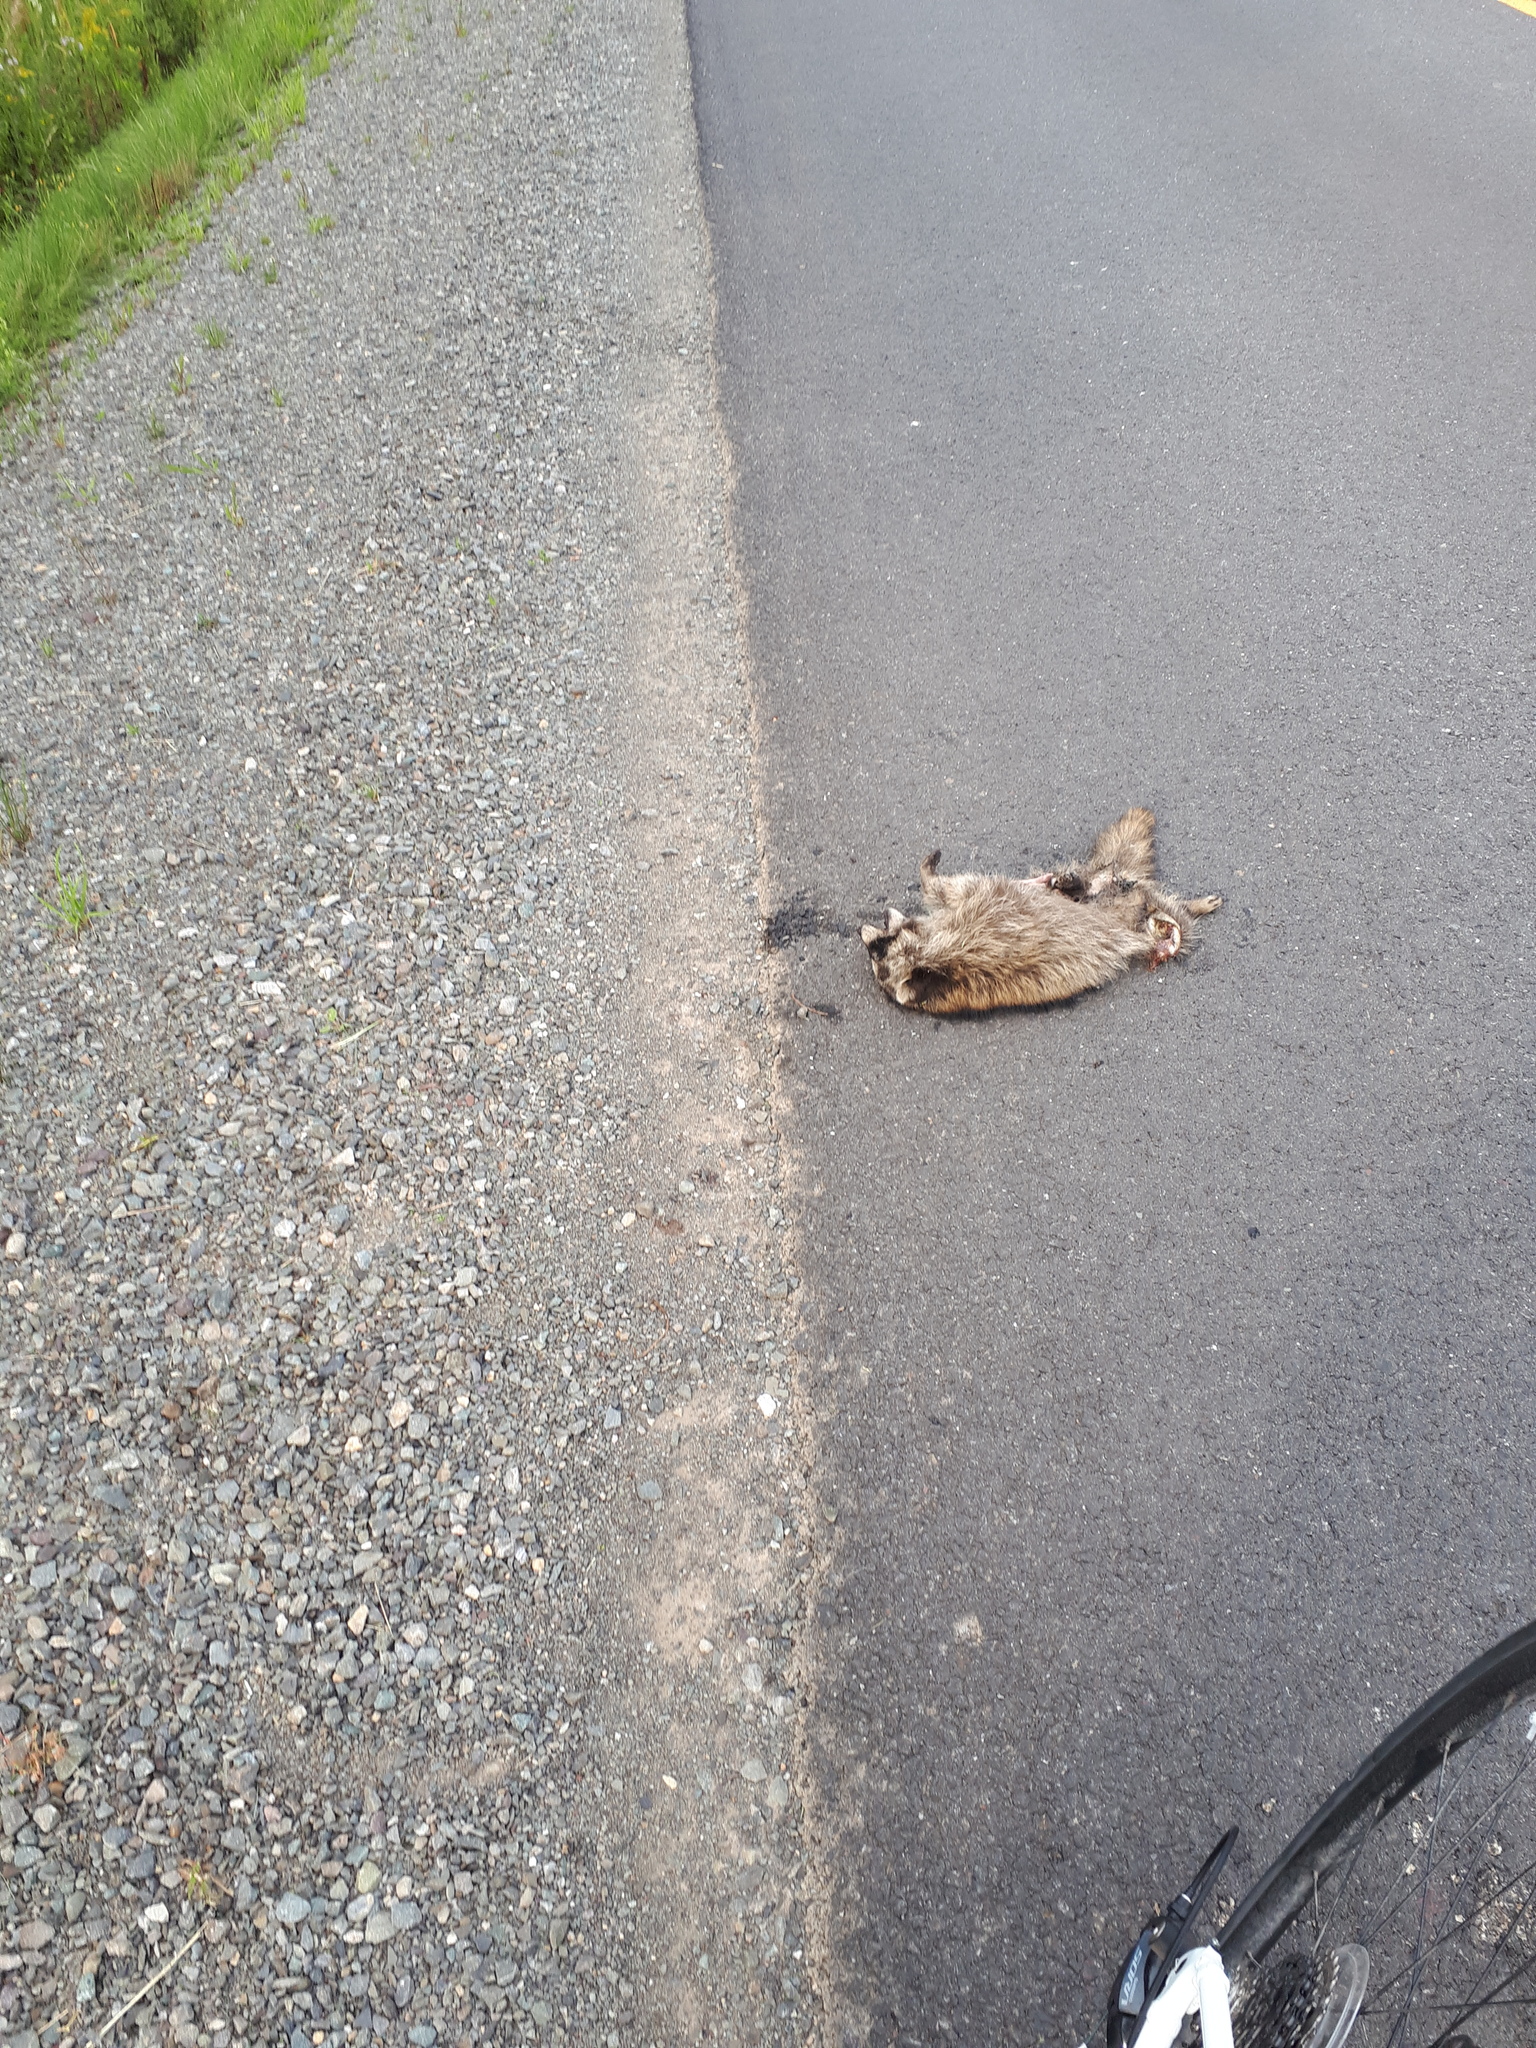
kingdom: Animalia
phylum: Chordata
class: Mammalia
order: Carnivora
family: Procyonidae
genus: Procyon
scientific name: Procyon lotor
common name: Raccoon
